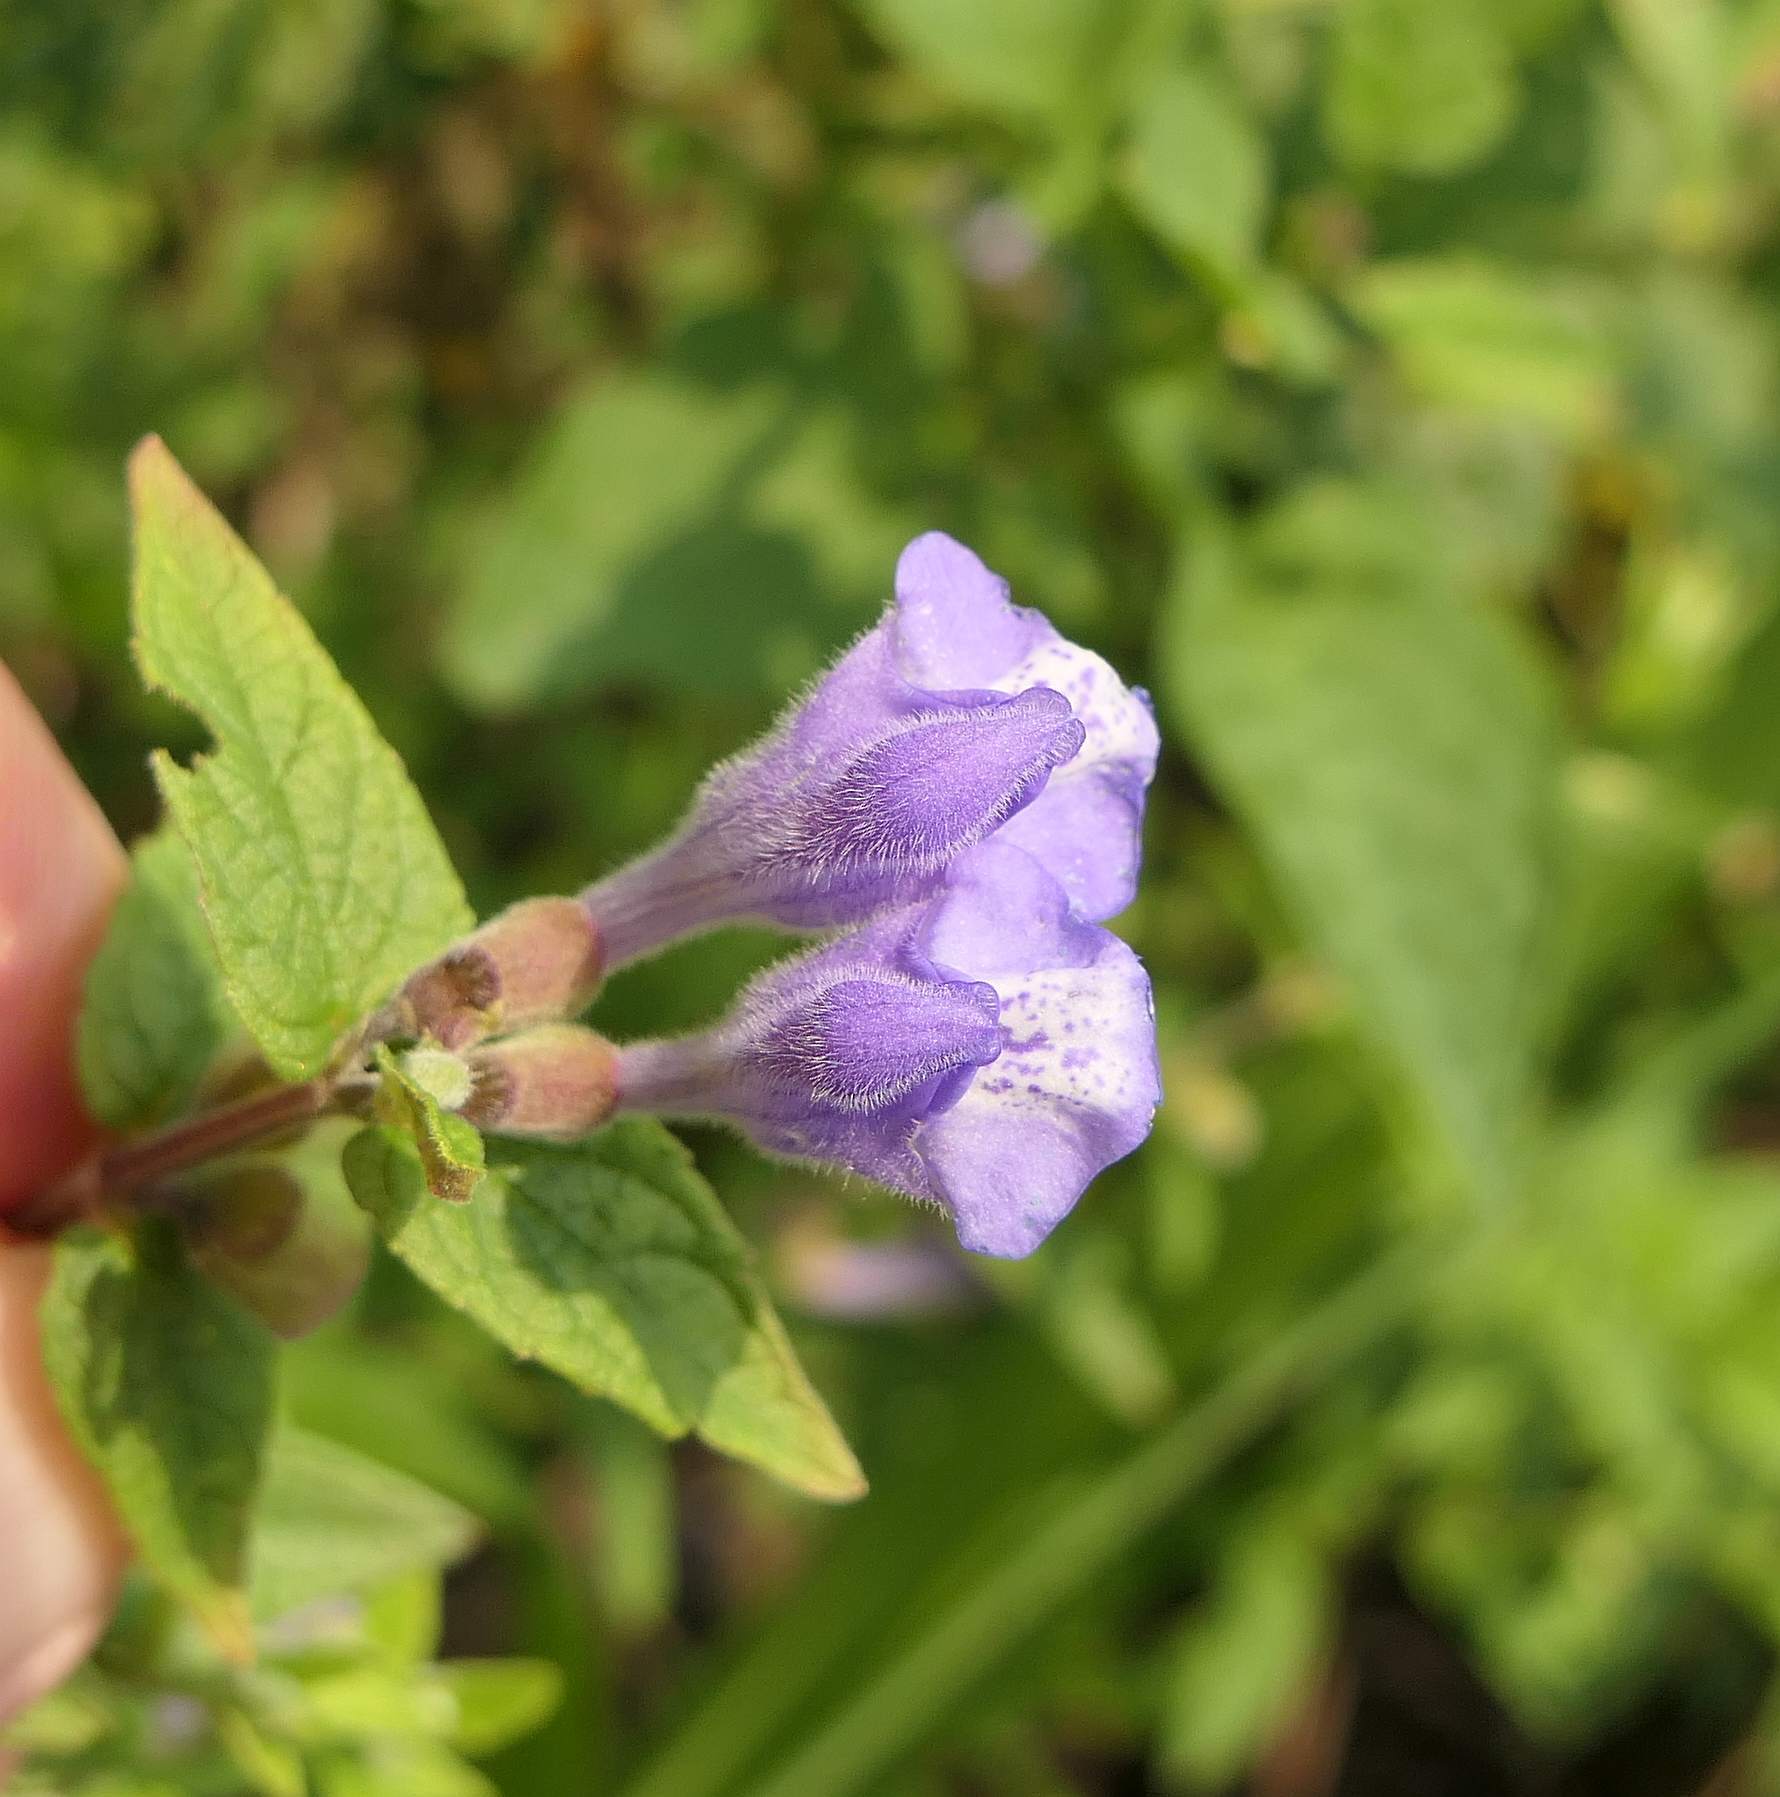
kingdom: Plantae
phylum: Tracheophyta
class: Magnoliopsida
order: Lamiales
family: Lamiaceae
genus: Scutellaria
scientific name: Scutellaria galericulata
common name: Skullcap
